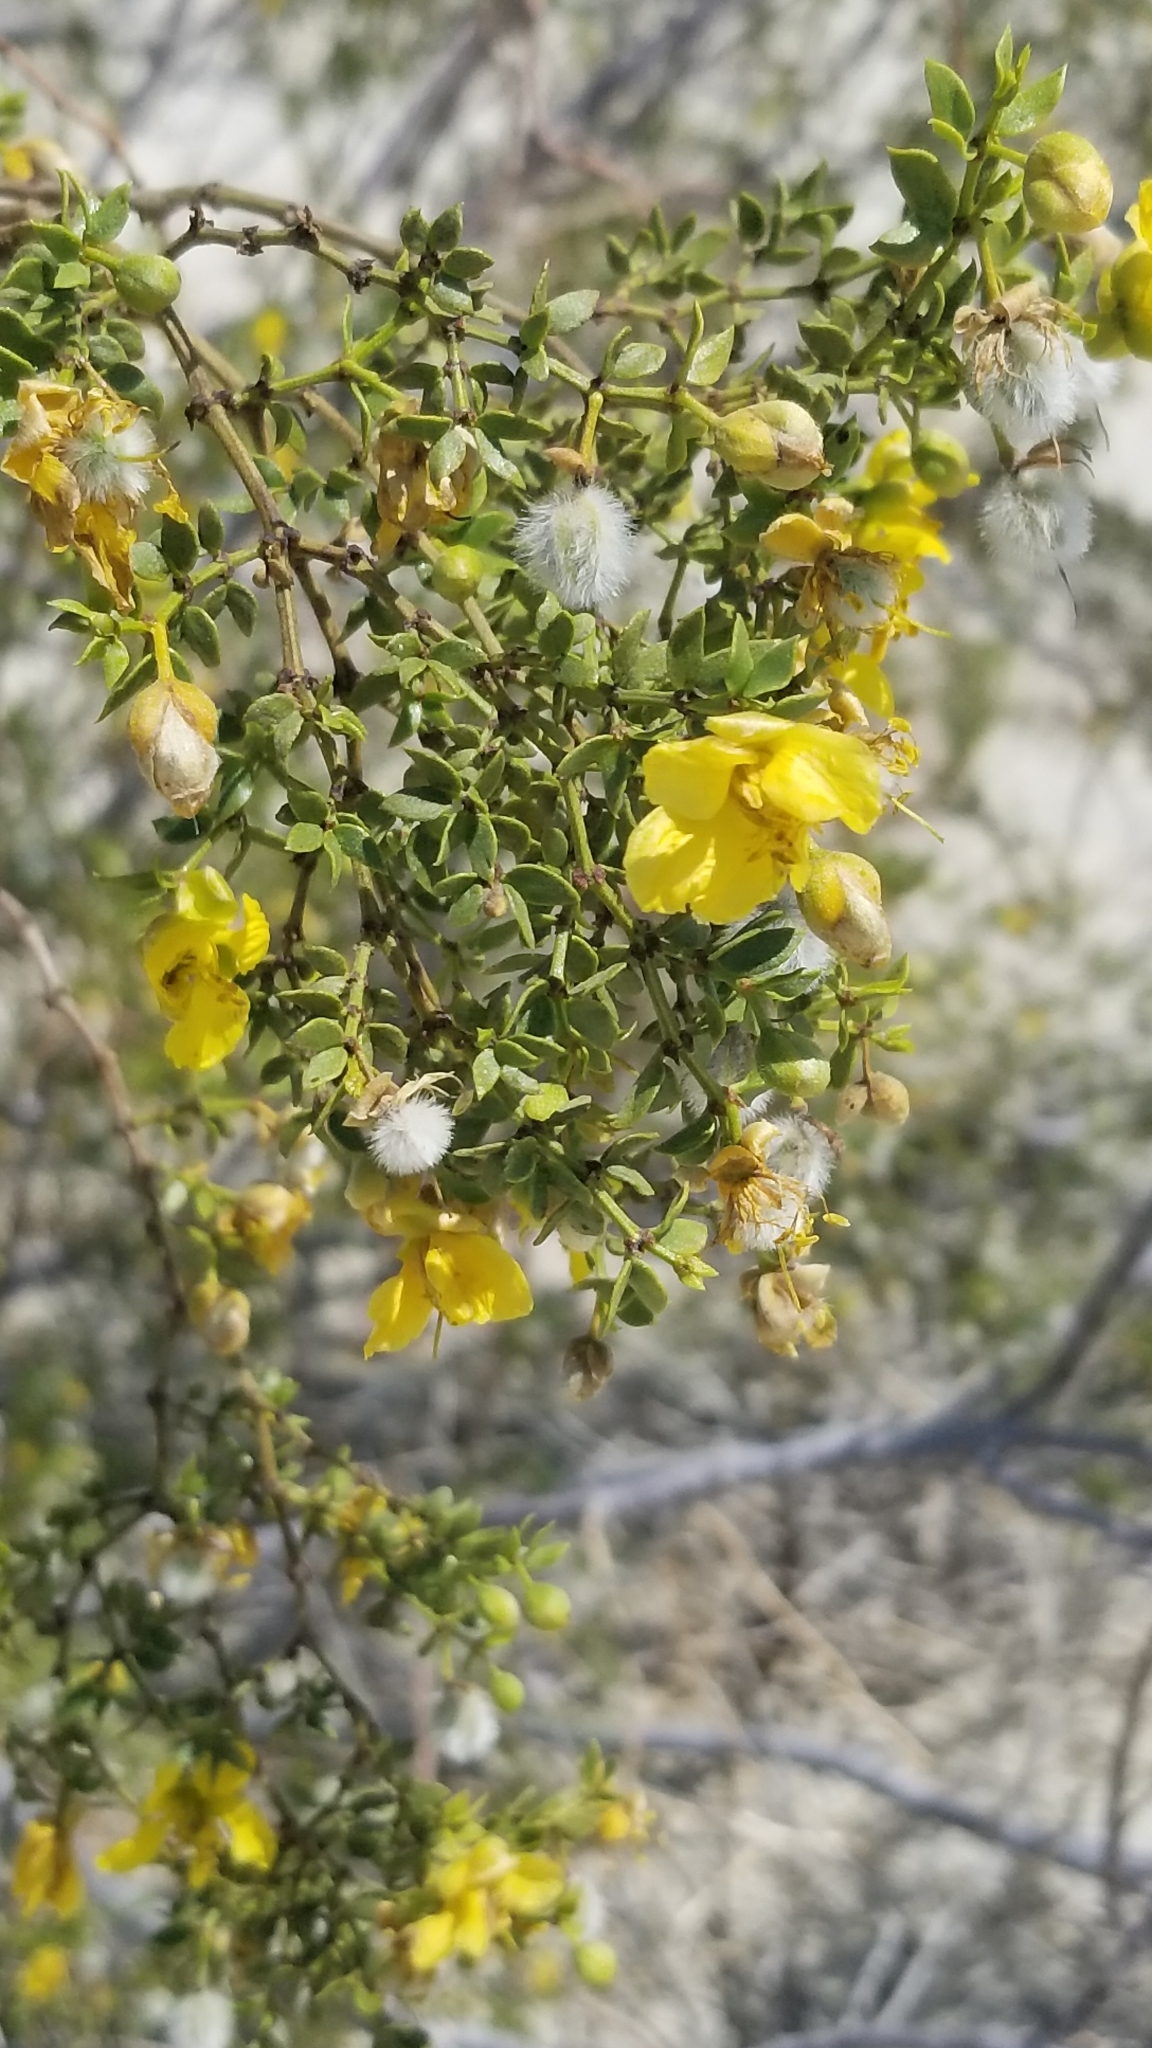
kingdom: Plantae
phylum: Tracheophyta
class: Magnoliopsida
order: Zygophyllales
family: Zygophyllaceae
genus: Larrea
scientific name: Larrea tridentata
